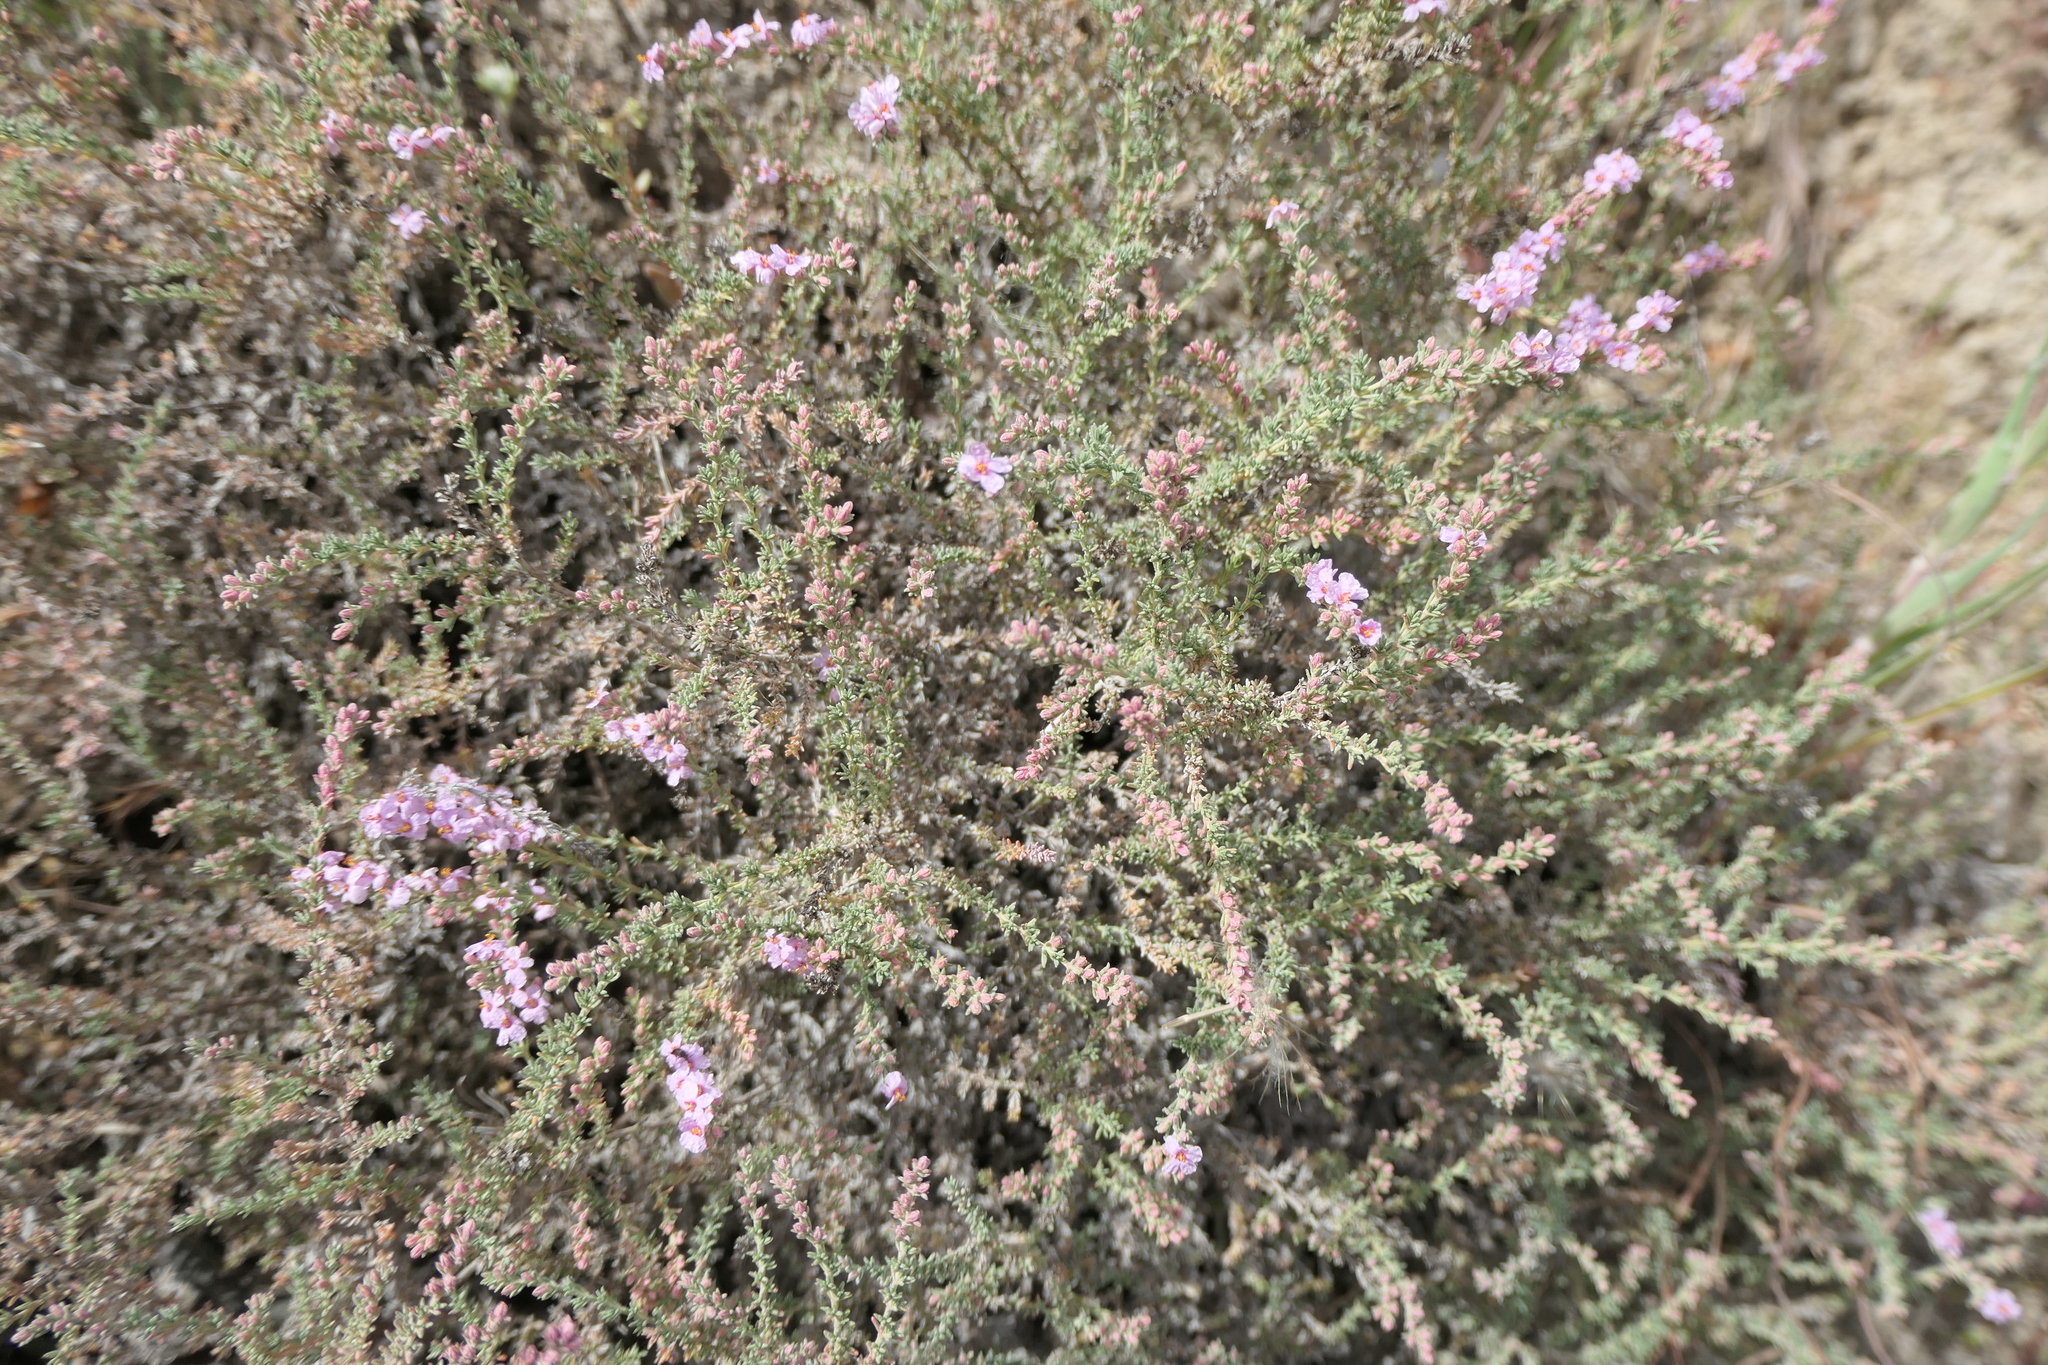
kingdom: Plantae
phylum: Tracheophyta
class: Magnoliopsida
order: Caryophyllales
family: Frankeniaceae
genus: Frankenia
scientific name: Frankenia thymifolia
